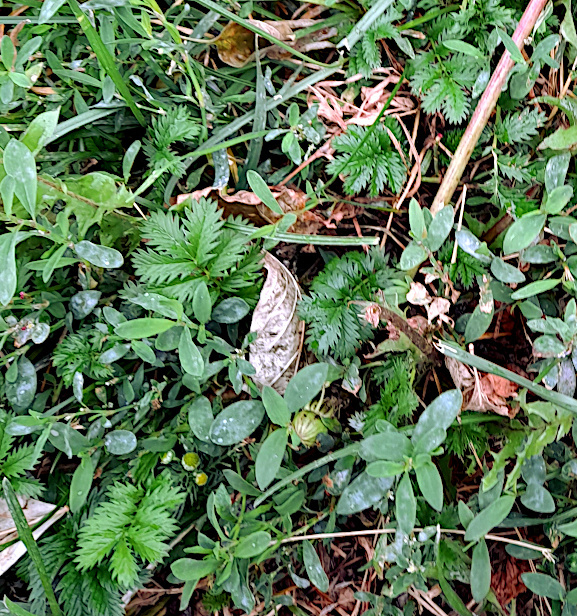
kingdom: Plantae
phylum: Tracheophyta
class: Magnoliopsida
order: Rosales
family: Rosaceae
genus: Argentina
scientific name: Argentina anserina
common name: Common silverweed
